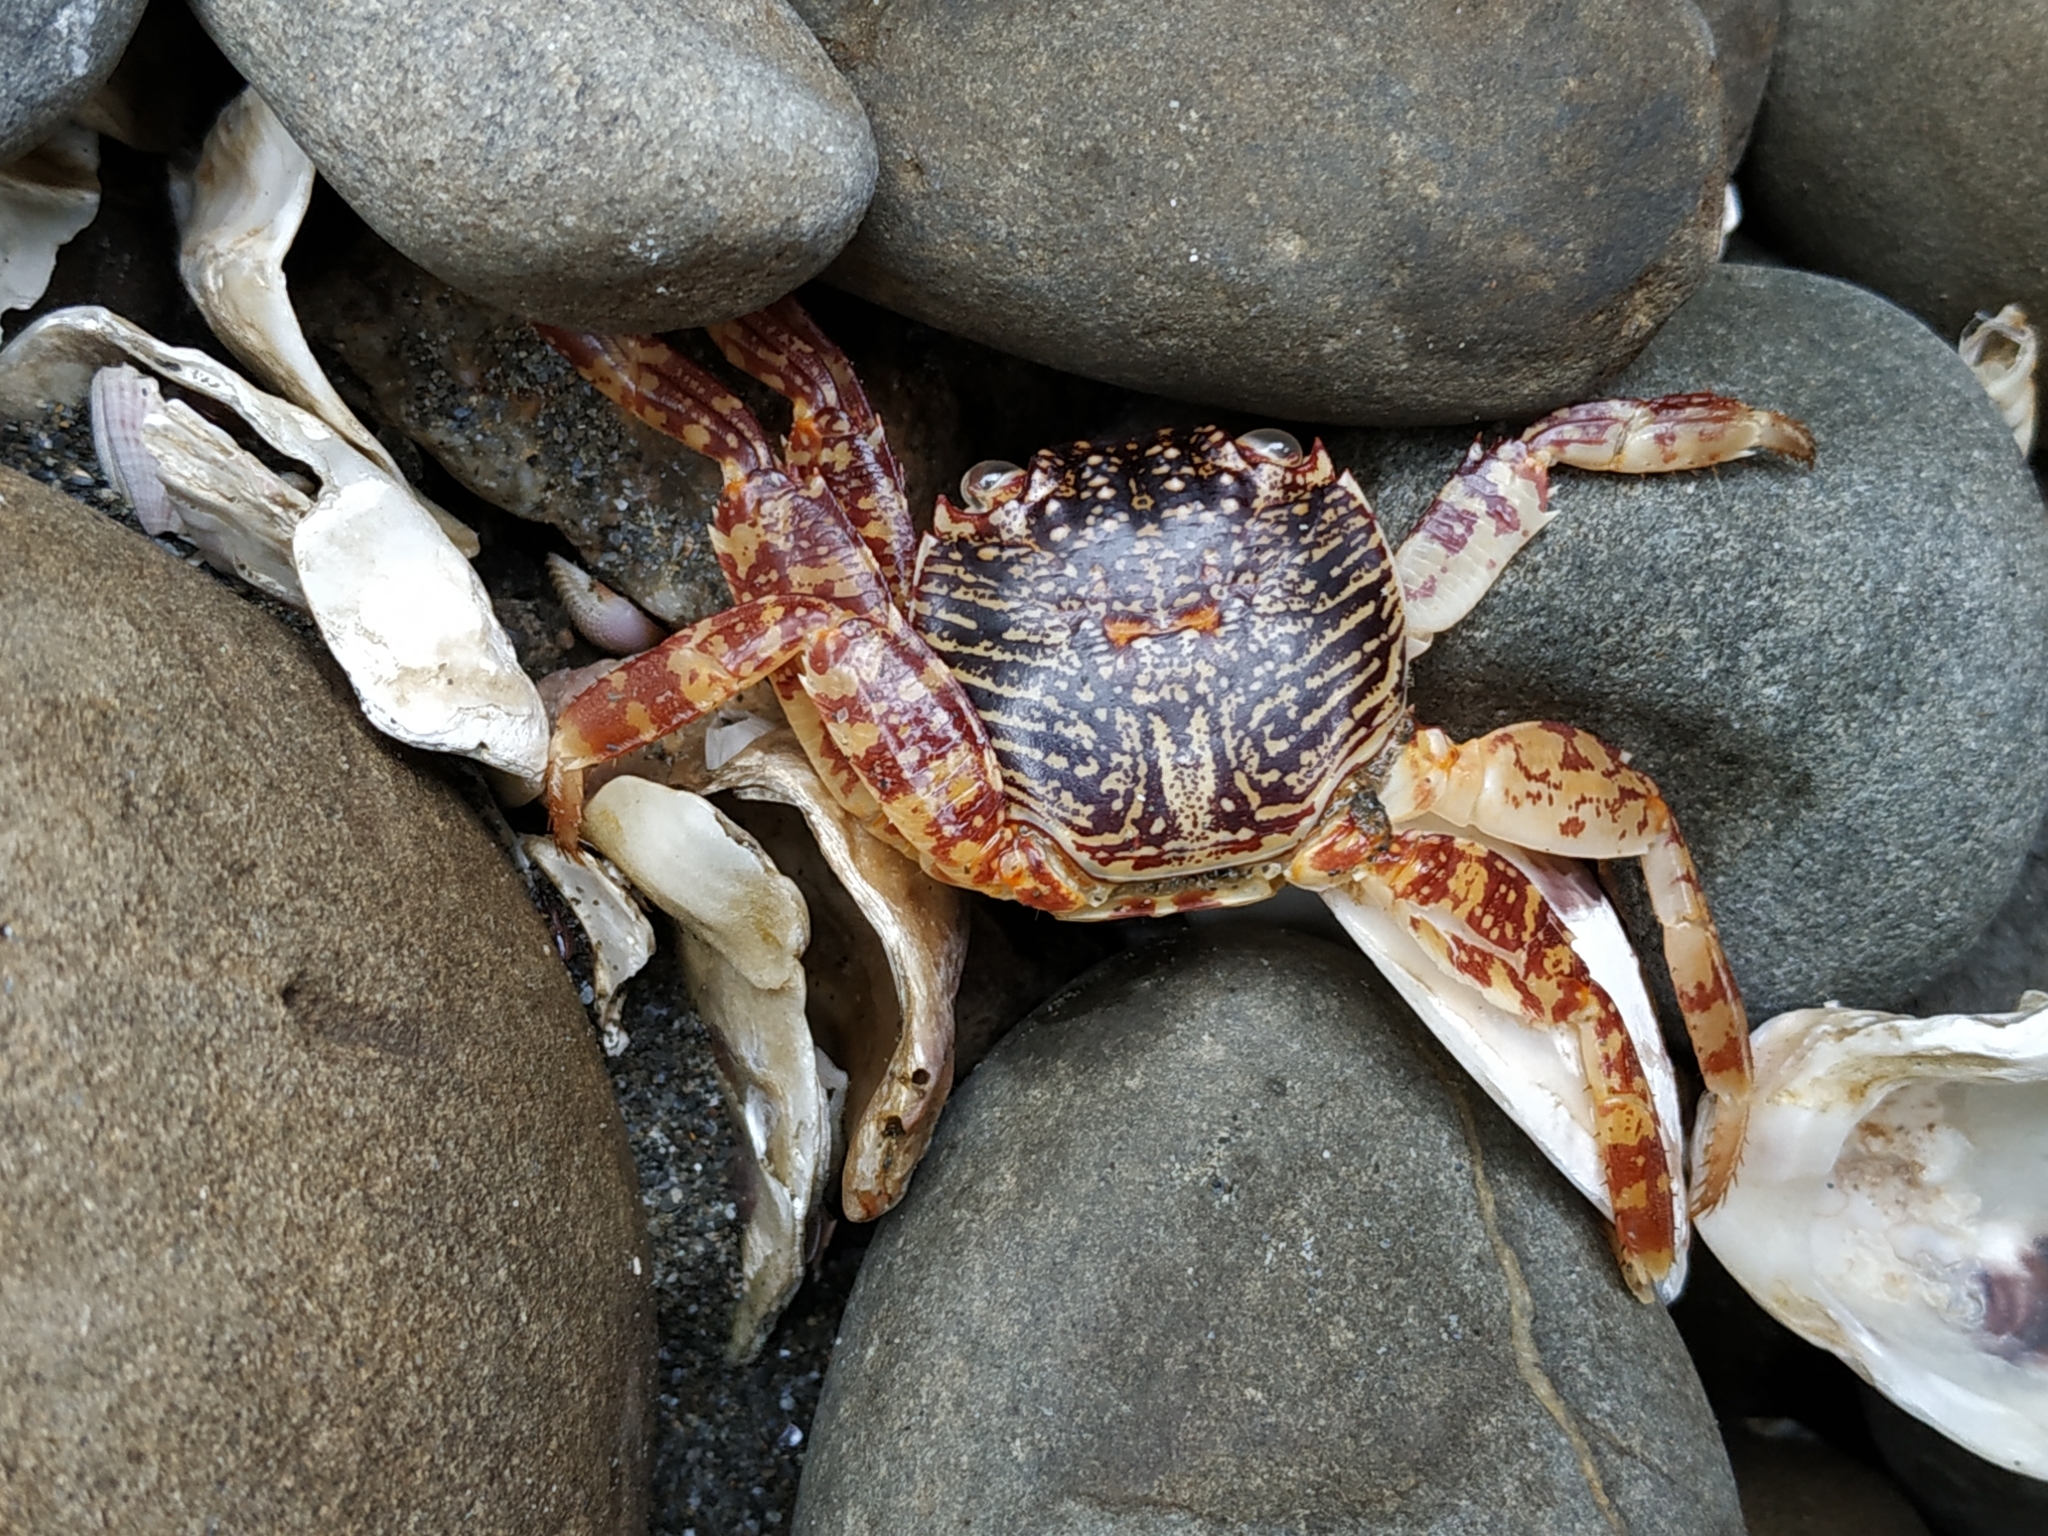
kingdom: Animalia
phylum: Arthropoda
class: Malacostraca
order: Decapoda
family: Grapsidae
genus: Grapsus
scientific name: Grapsus albolineatus
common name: Mottled lightfoot crab
